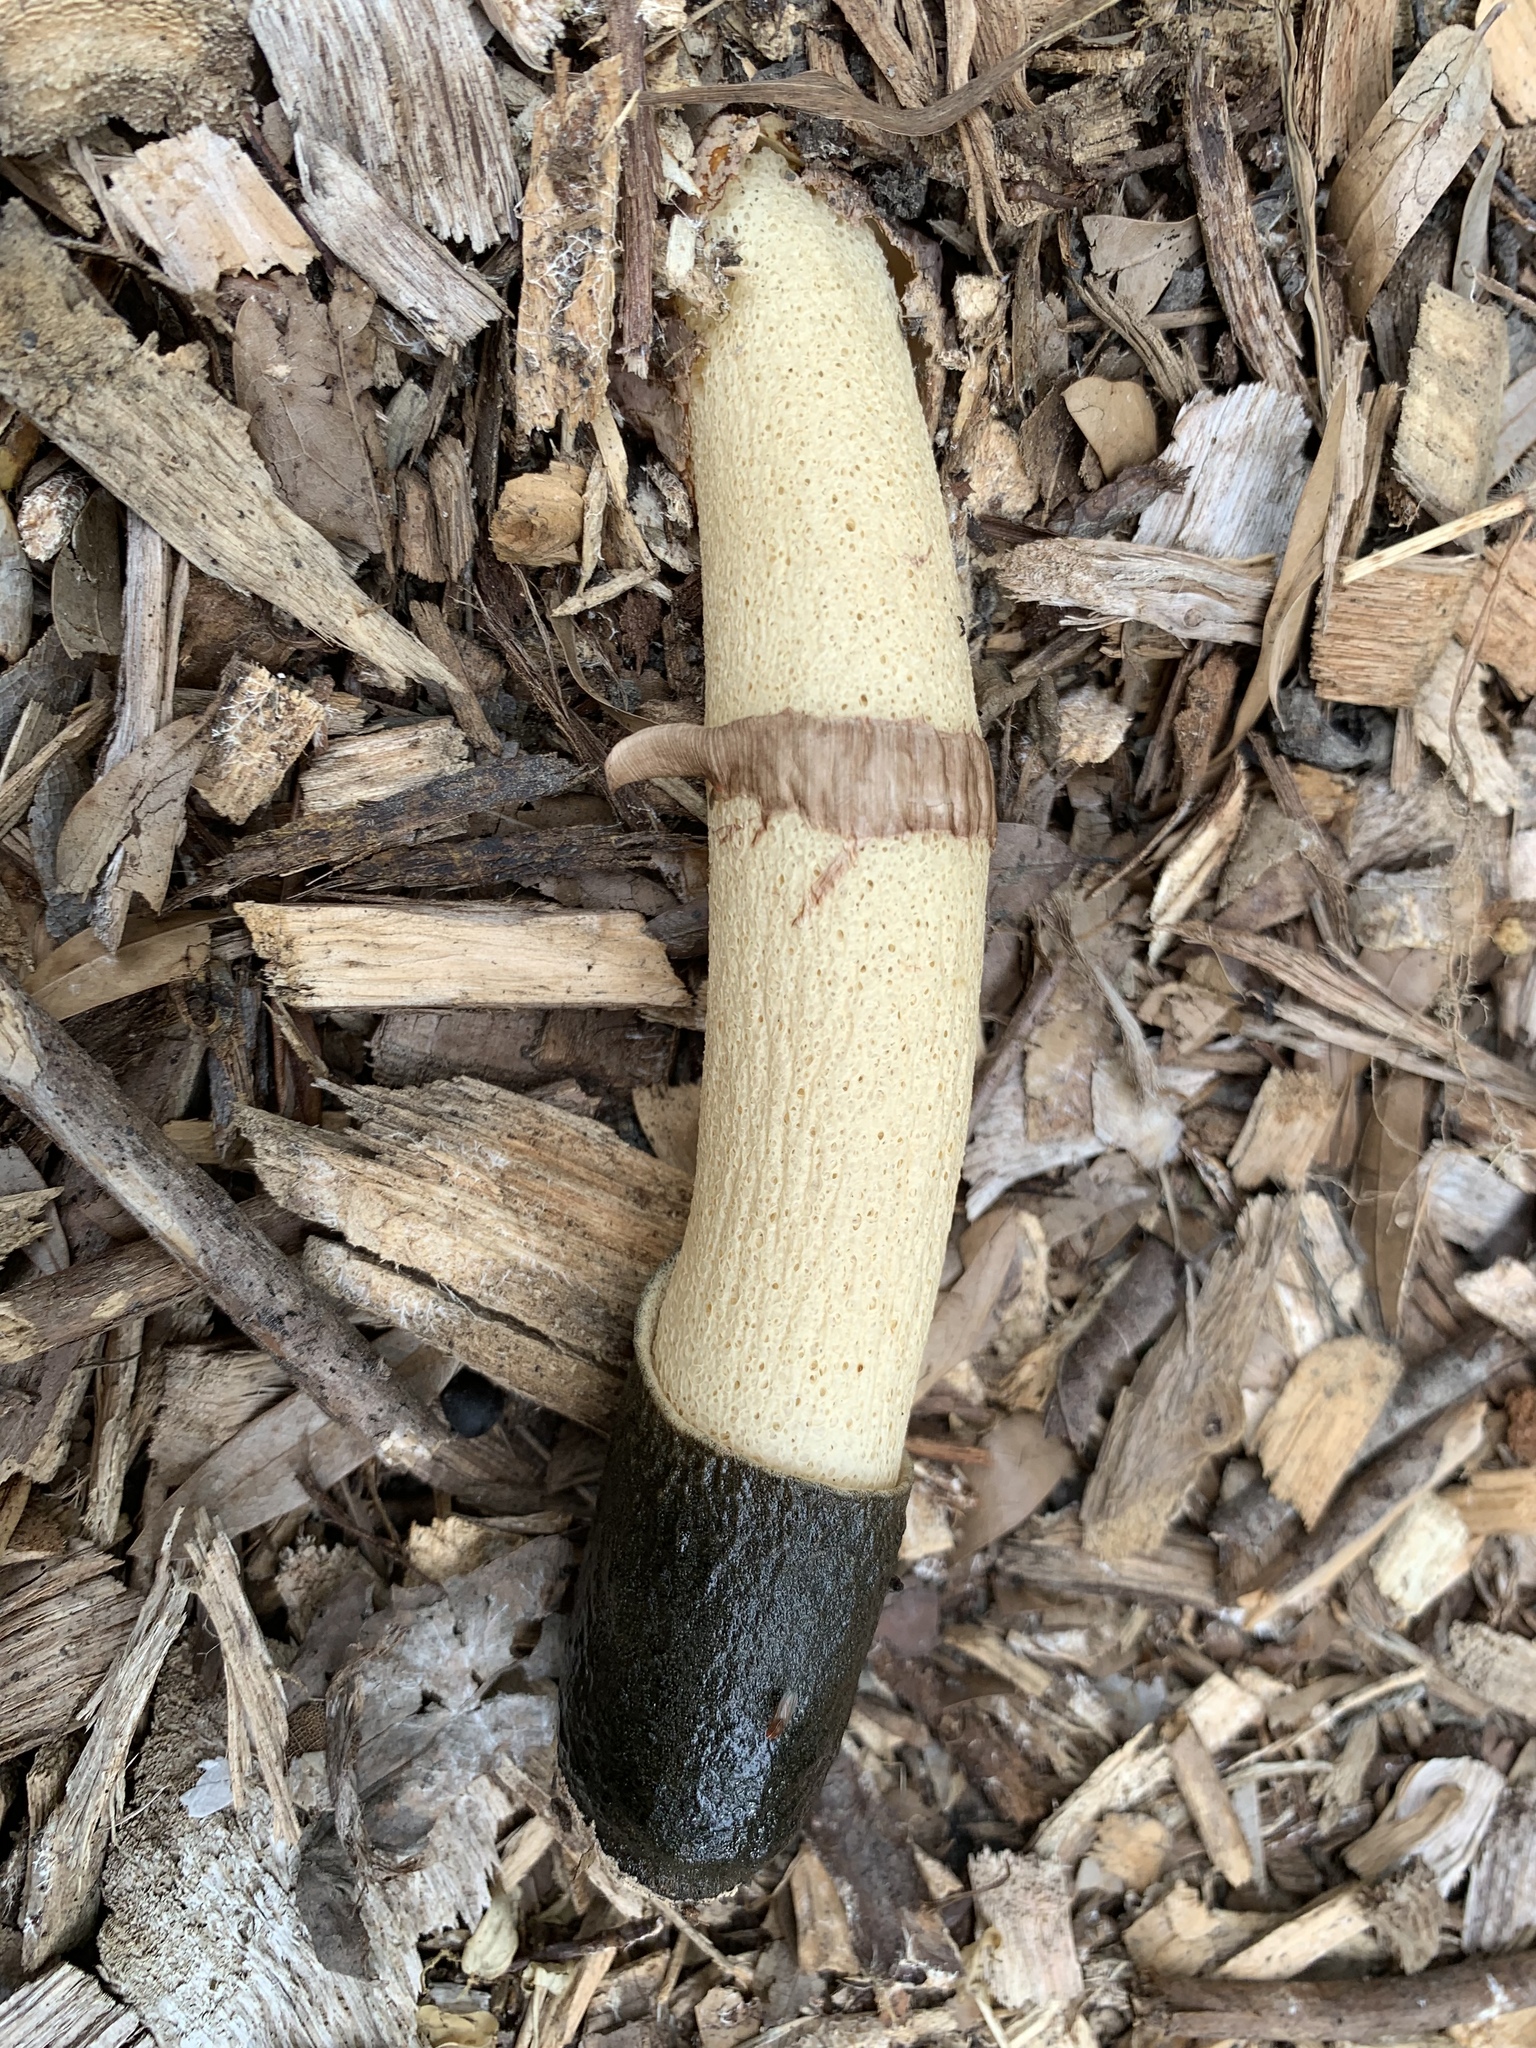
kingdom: Fungi
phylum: Basidiomycota
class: Agaricomycetes
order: Phallales
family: Phallaceae
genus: Phallus
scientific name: Phallus ravenelii
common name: Ravenel's stinkhorn
